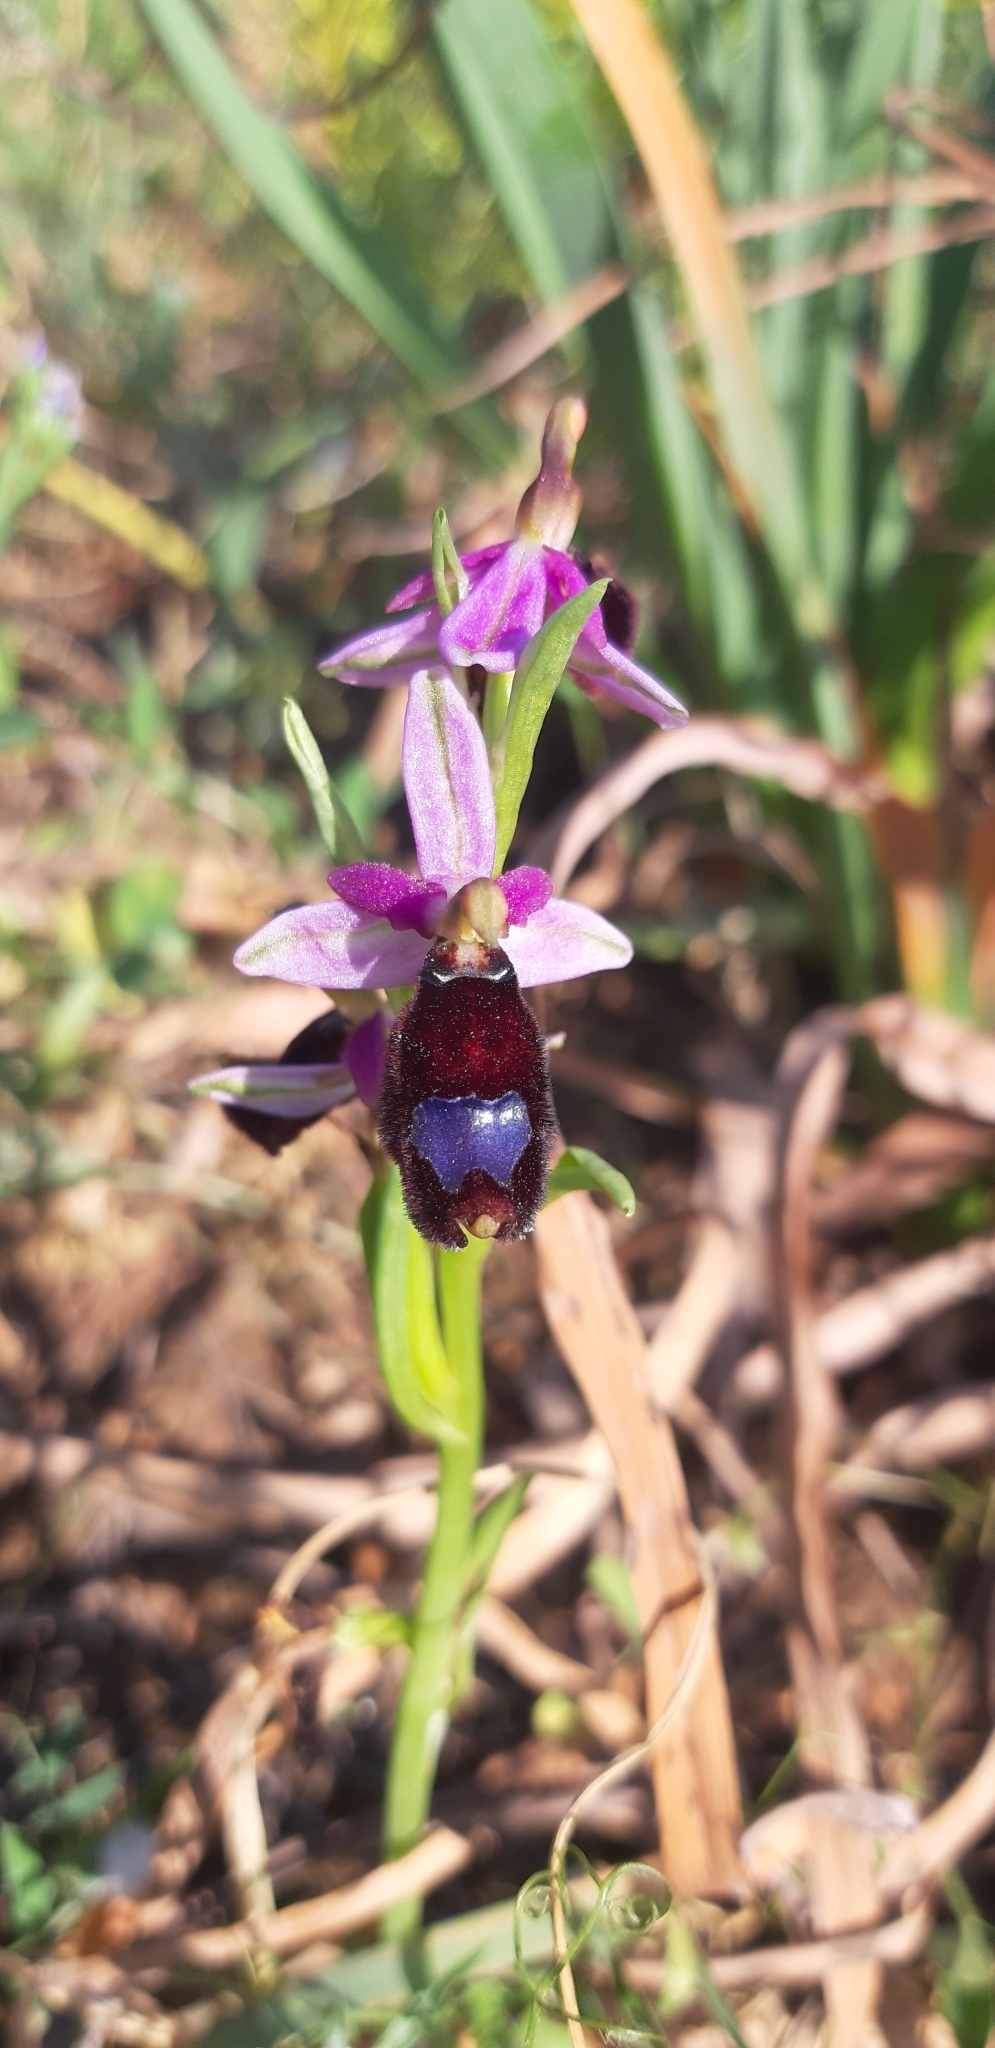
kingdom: Plantae
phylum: Tracheophyta
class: Liliopsida
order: Asparagales
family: Orchidaceae
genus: Ophrys
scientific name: Ophrys bertolonii
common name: Bertoloni's bee orchid
